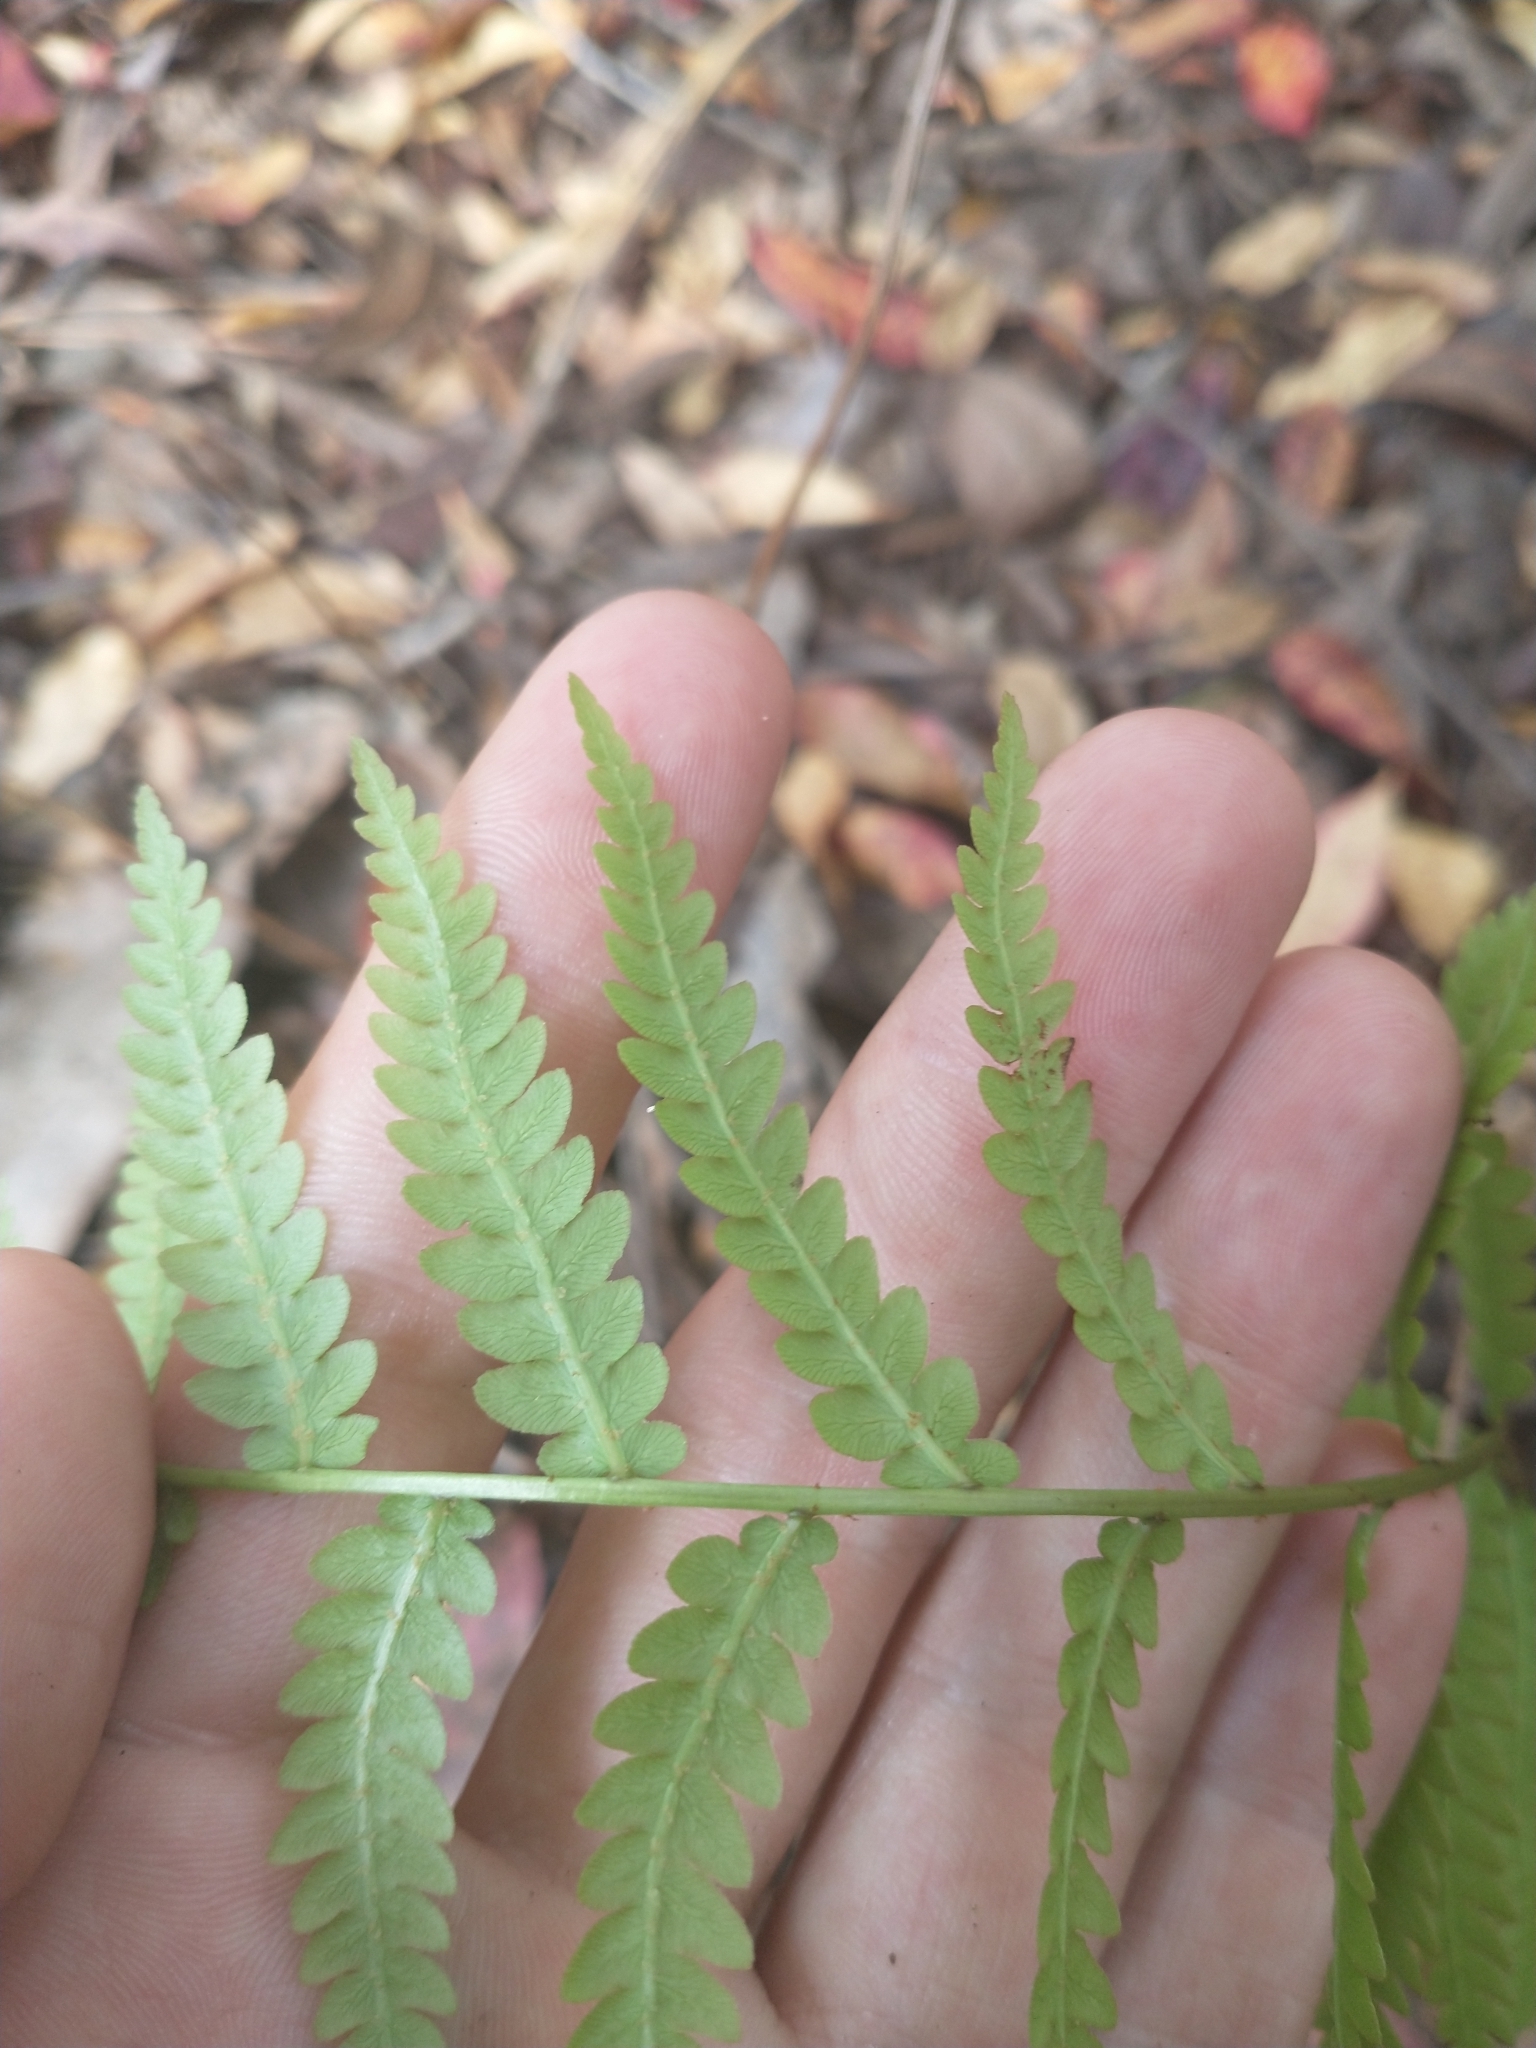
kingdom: Plantae
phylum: Tracheophyta
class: Polypodiopsida
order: Polypodiales
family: Blechnaceae
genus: Anchistea
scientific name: Anchistea virginica
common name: Virginia chain fern
